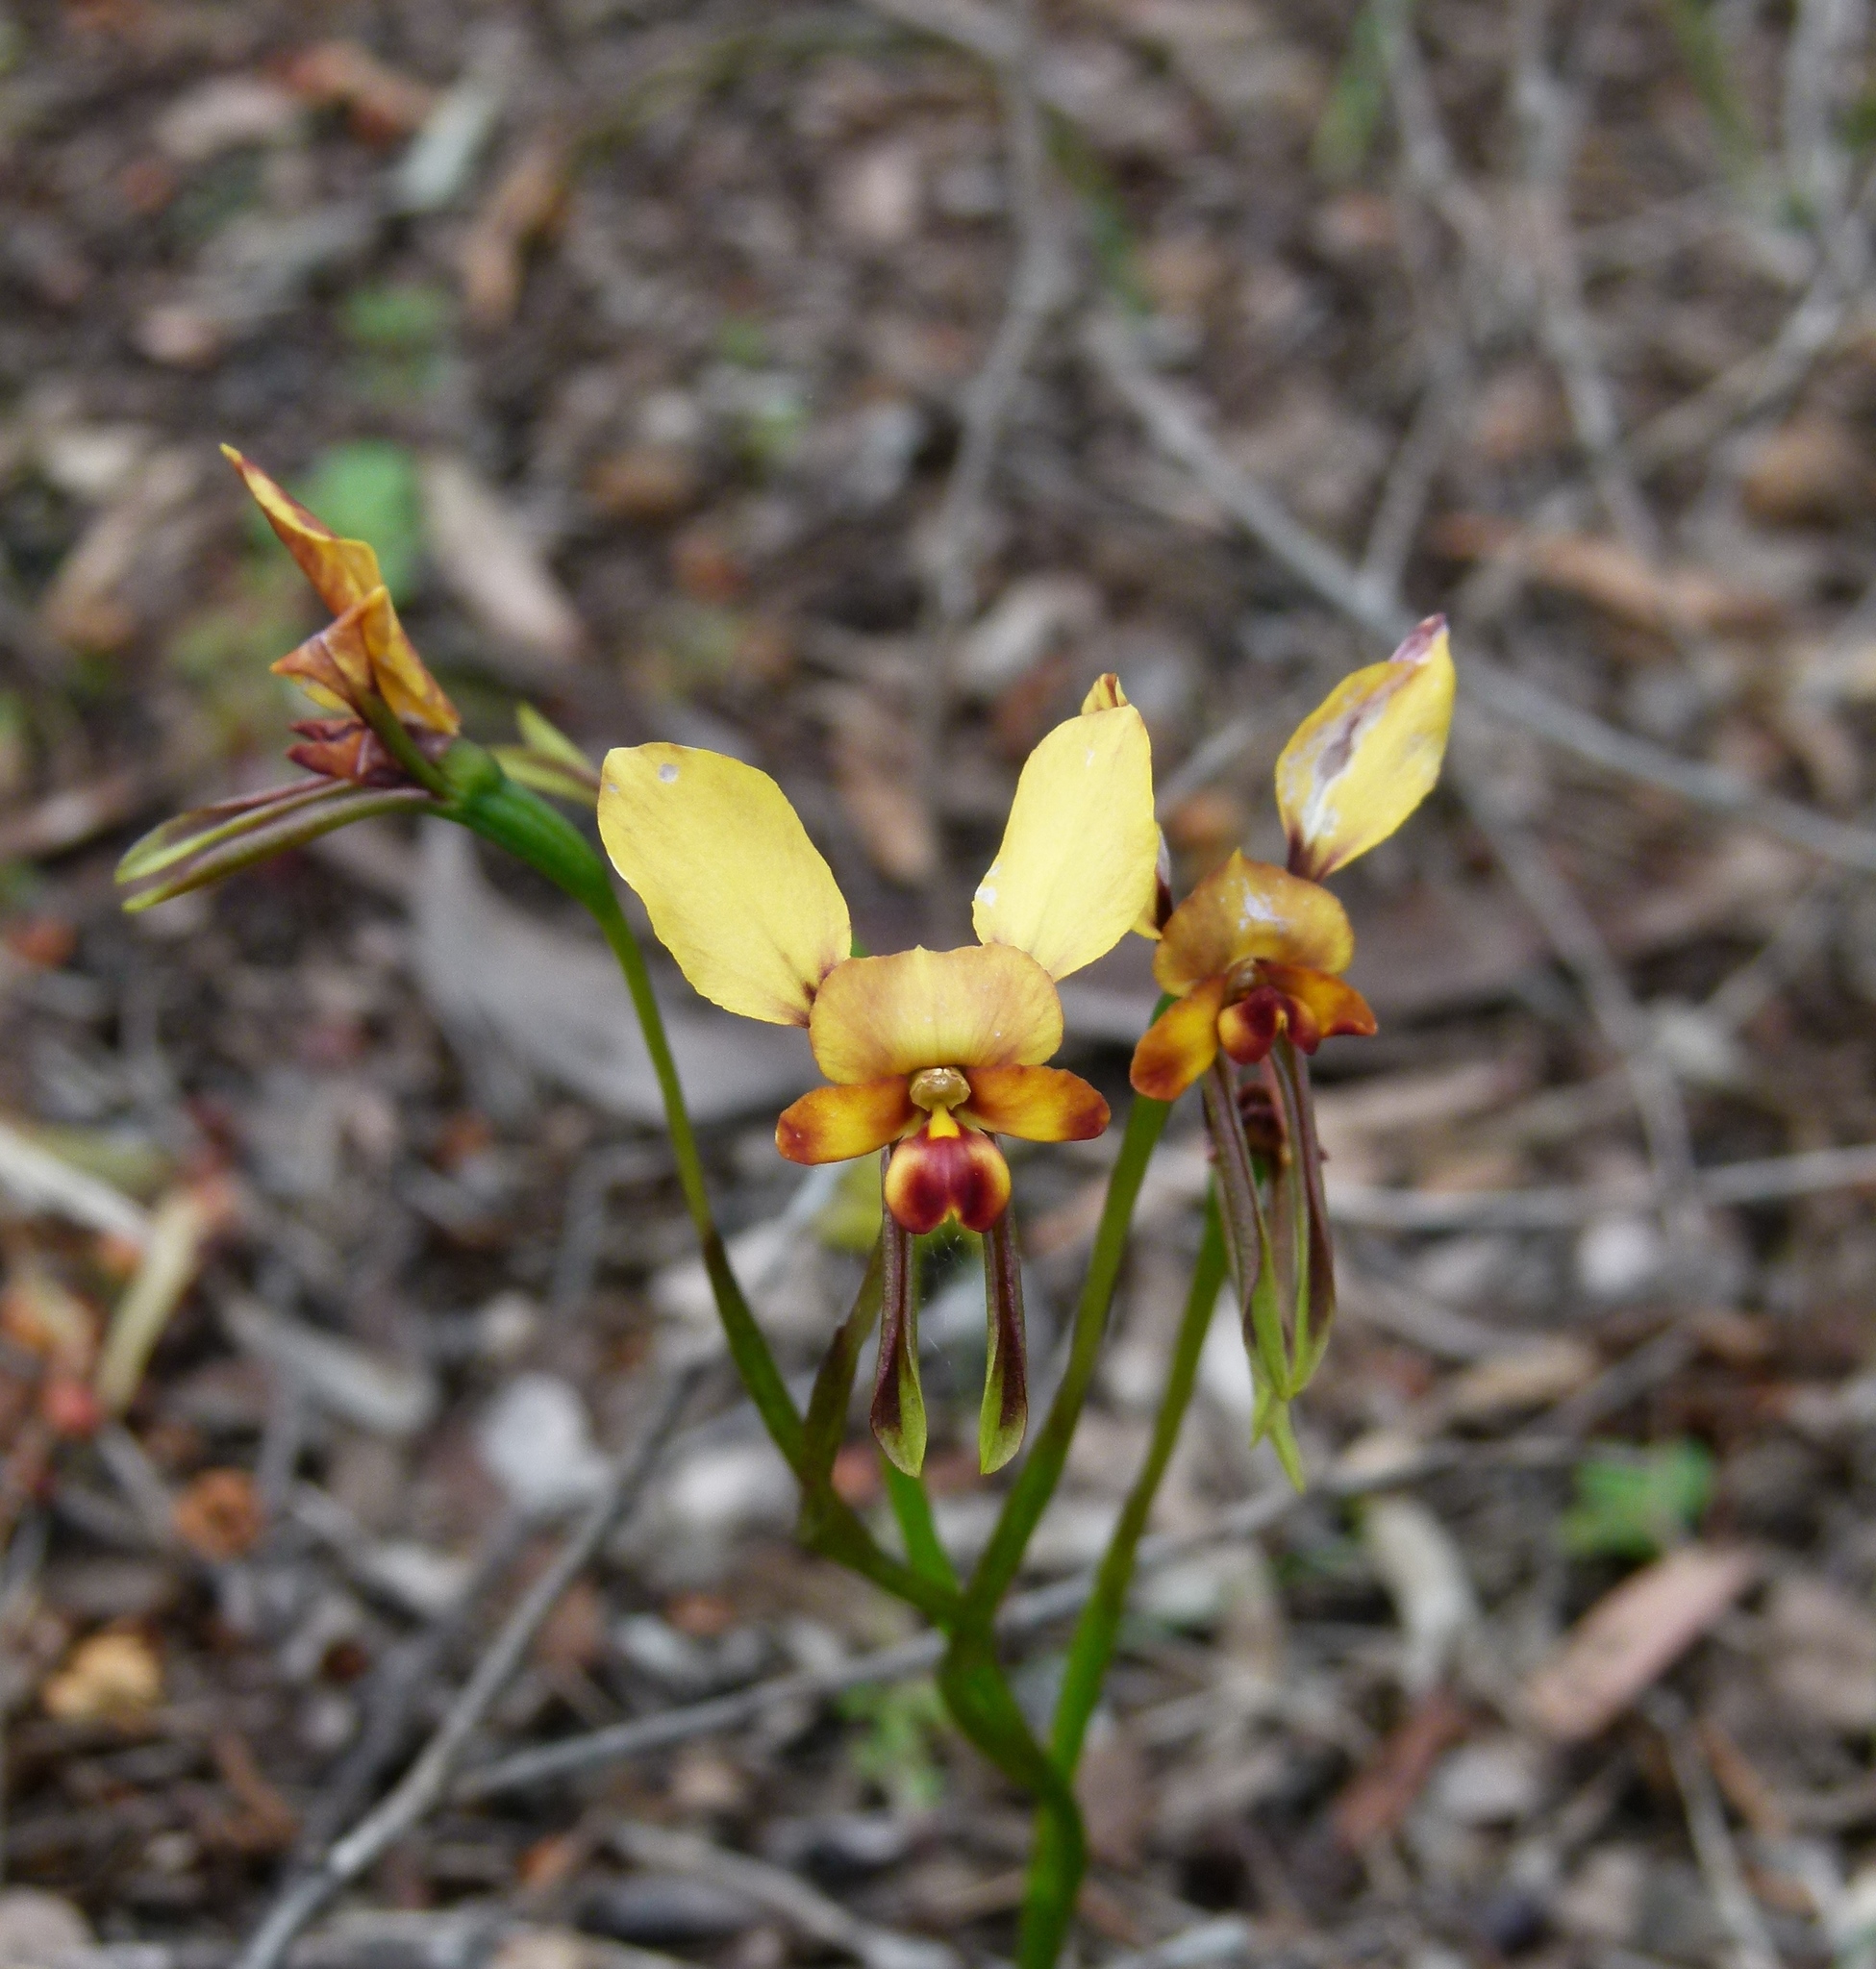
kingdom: Plantae
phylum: Tracheophyta
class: Liliopsida
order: Asparagales
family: Orchidaceae
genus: Diuris
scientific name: Diuris corymbosa
